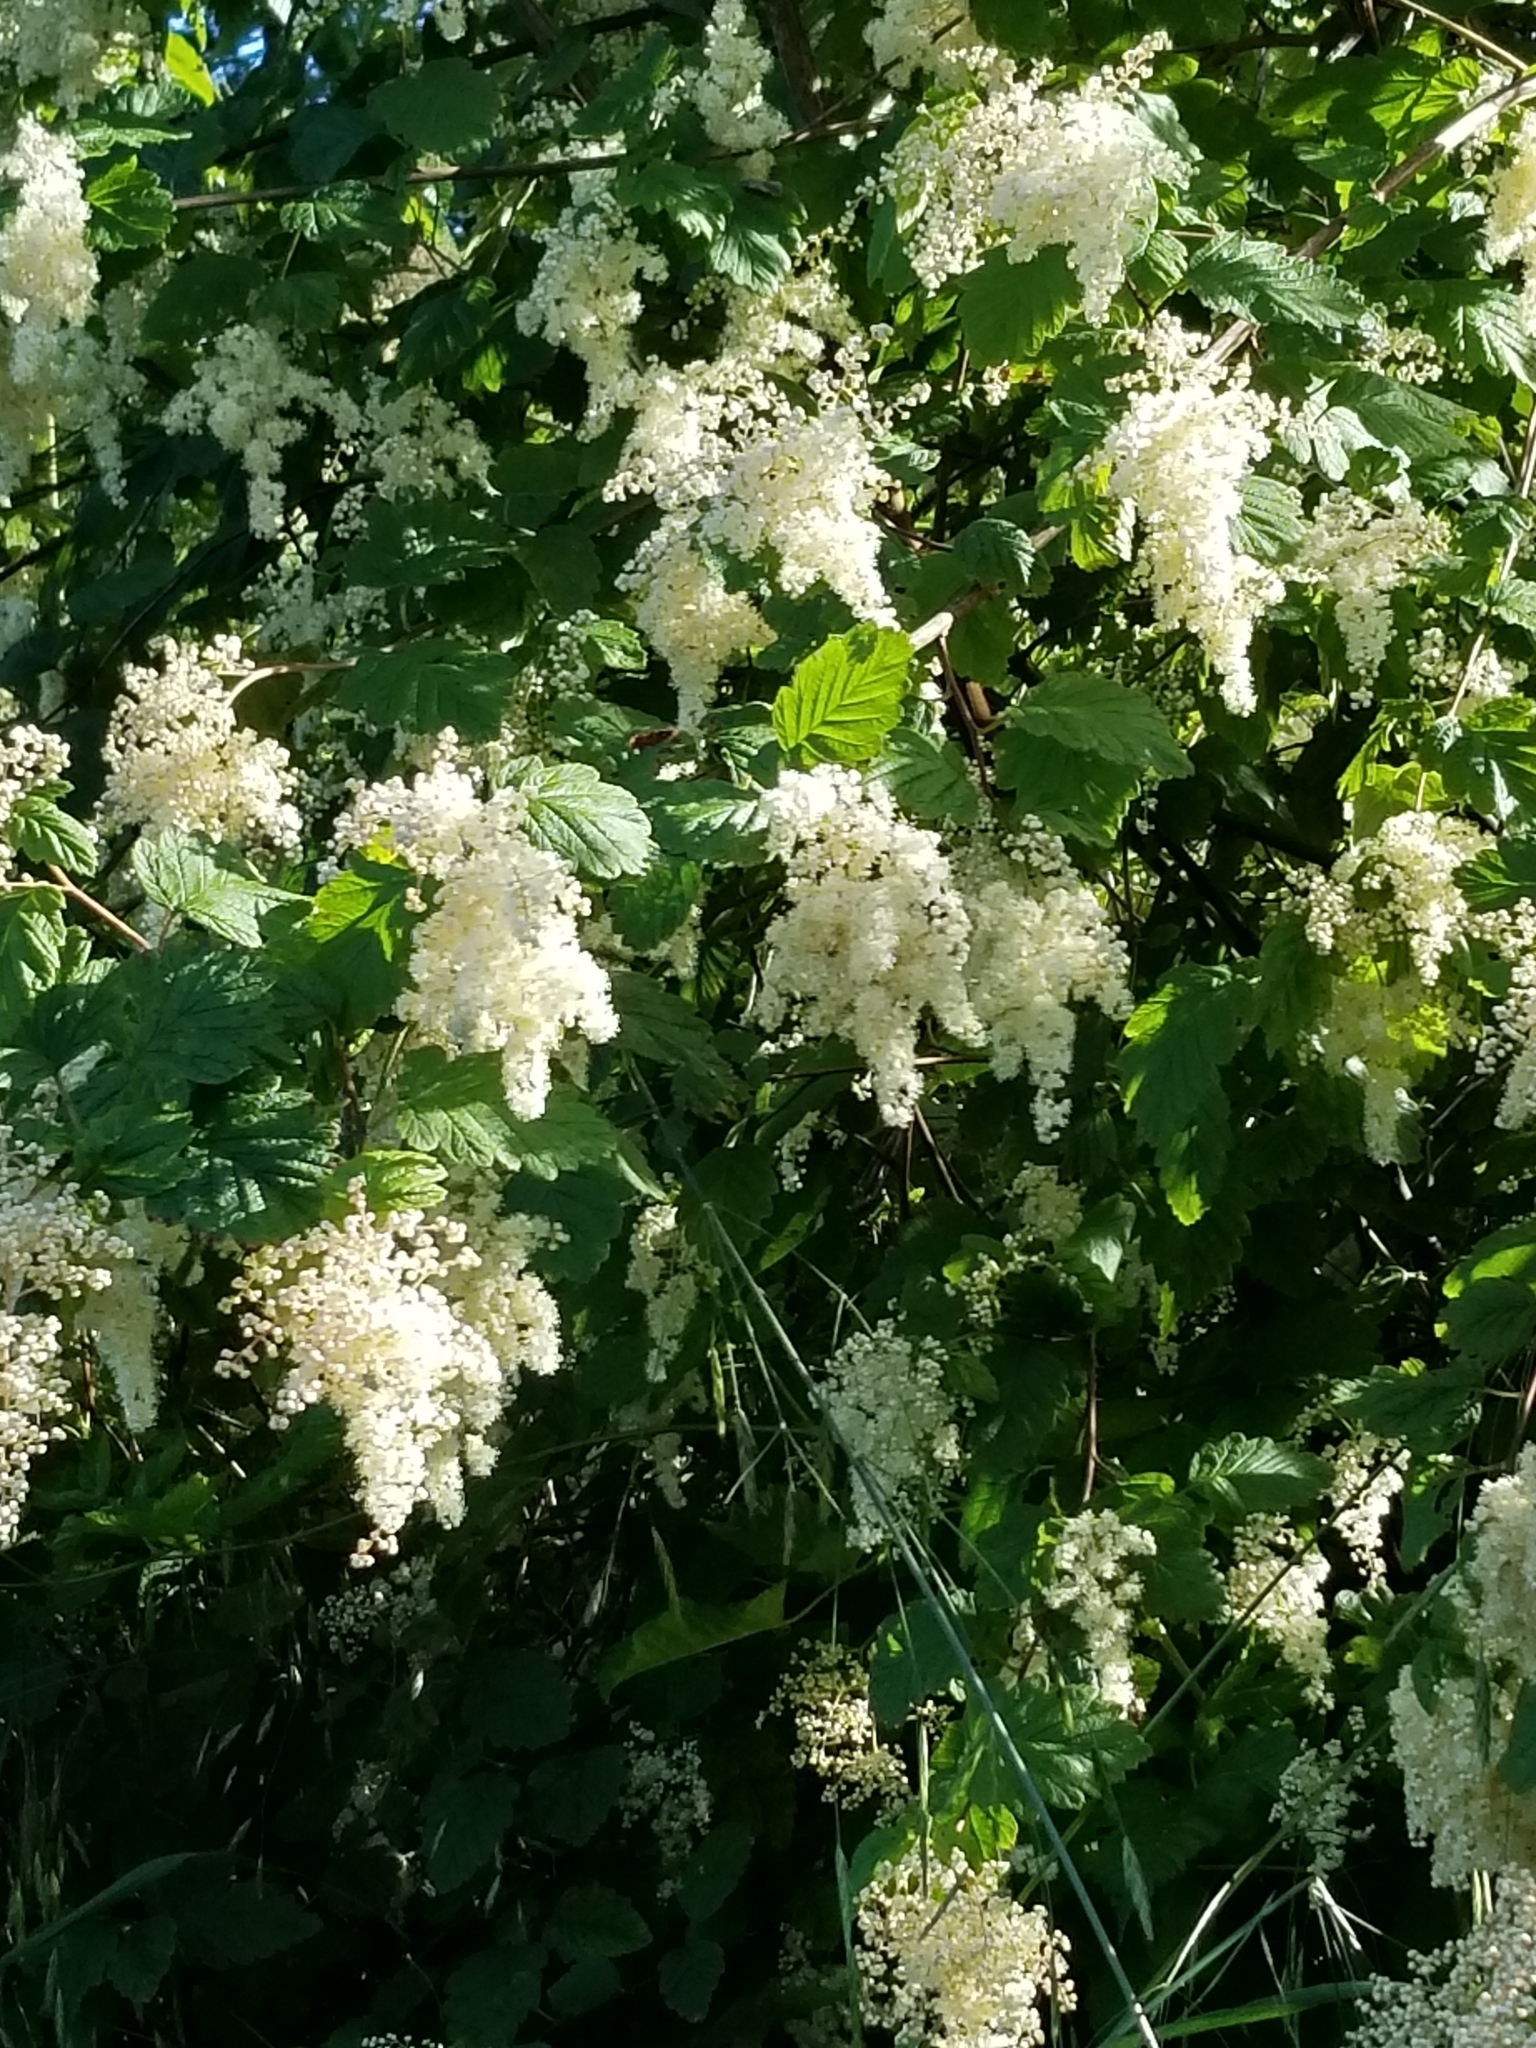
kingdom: Plantae
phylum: Tracheophyta
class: Magnoliopsida
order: Rosales
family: Rosaceae
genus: Holodiscus
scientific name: Holodiscus discolor
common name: Oceanspray
